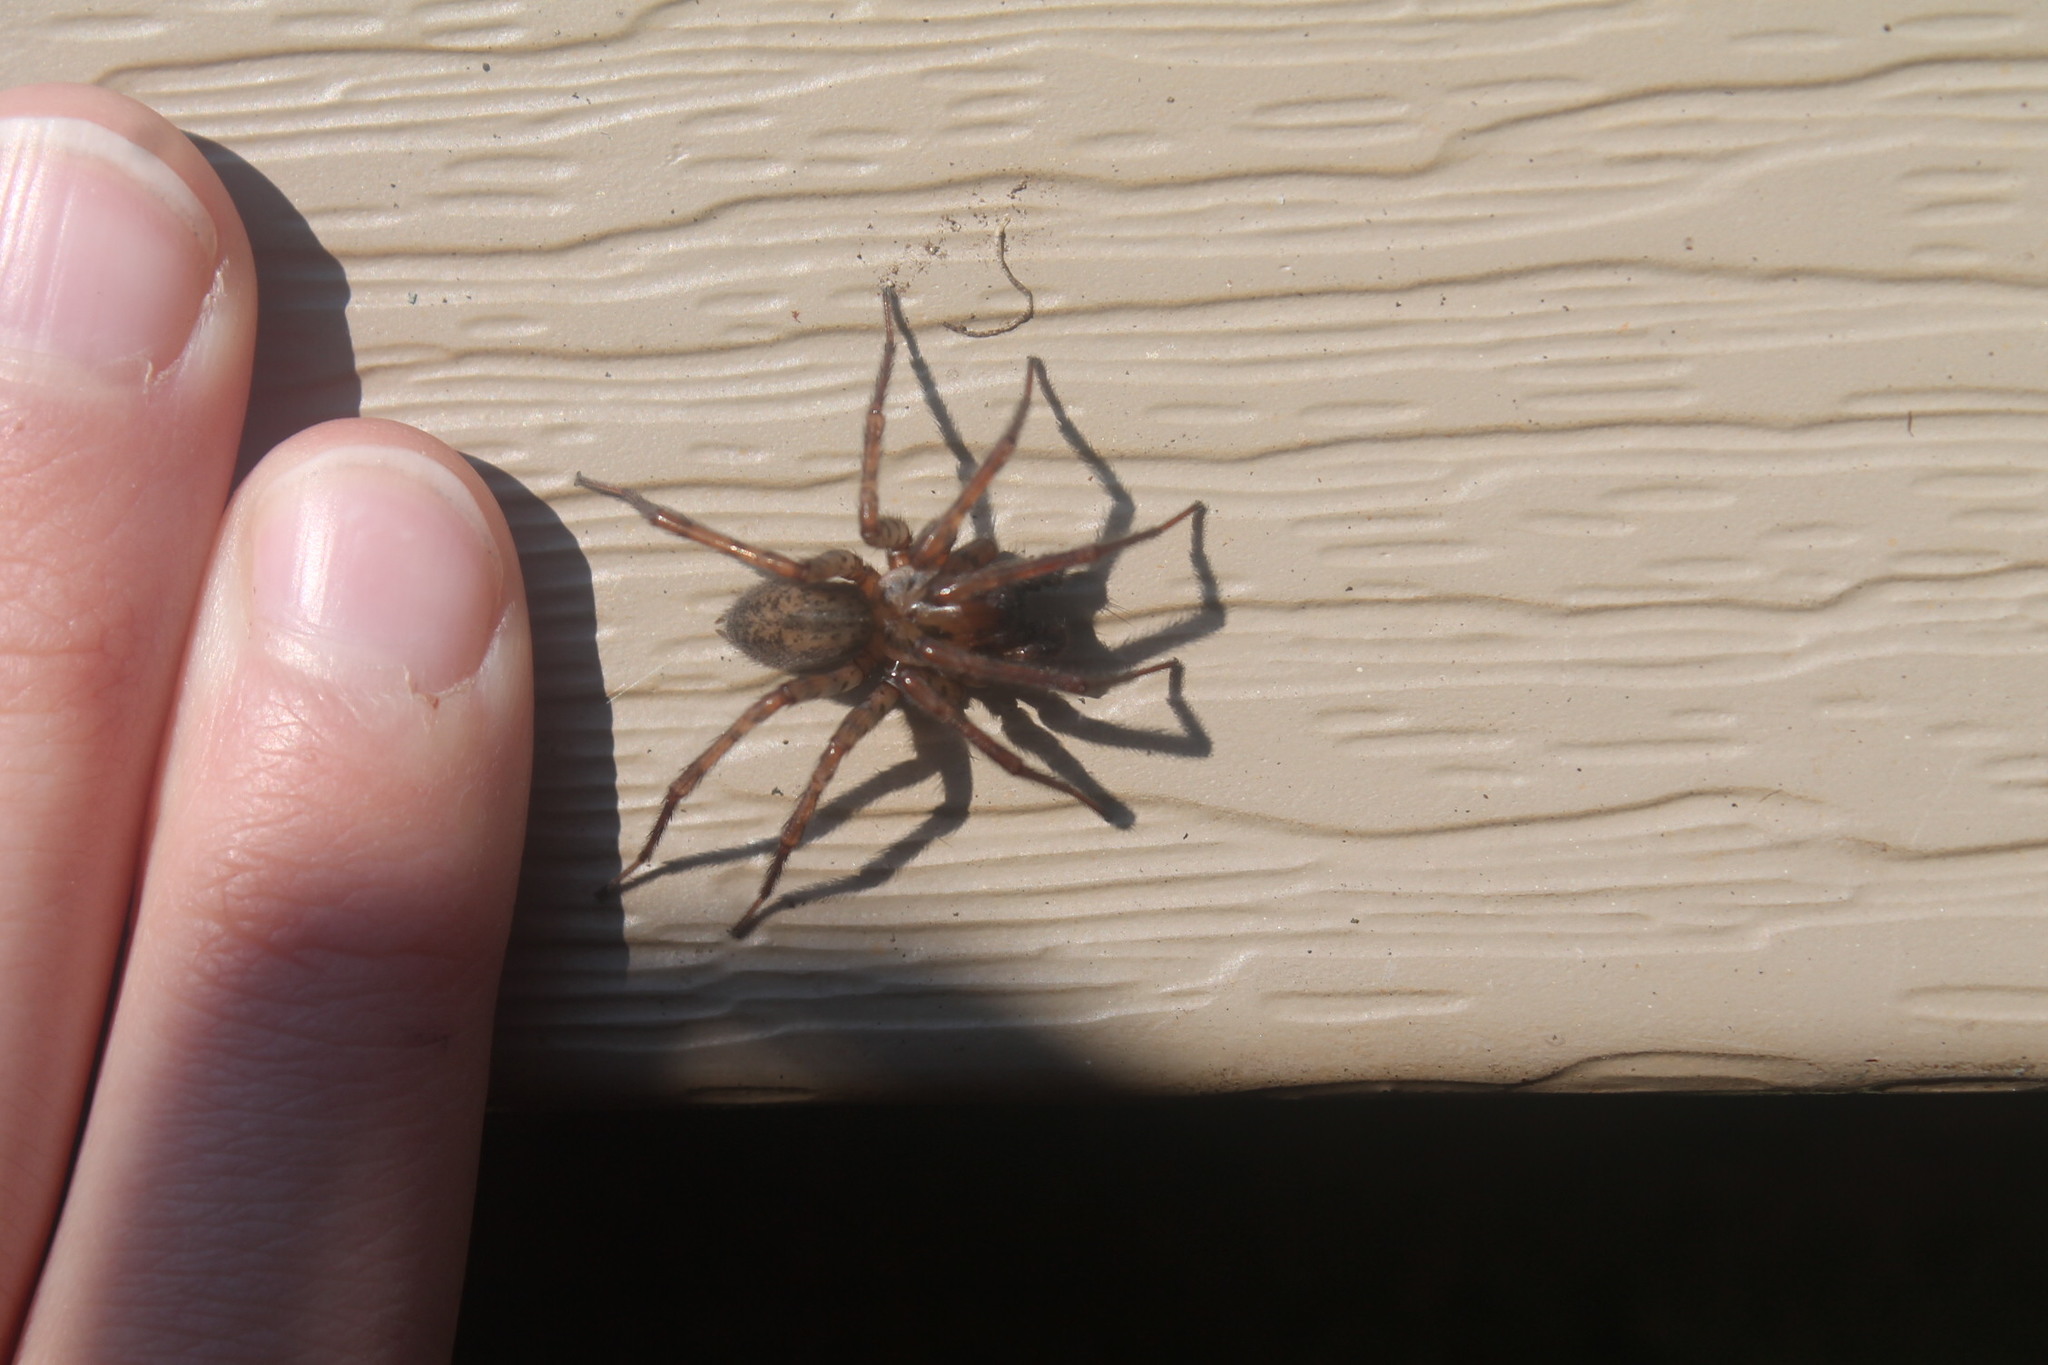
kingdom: Animalia
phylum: Arthropoda
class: Arachnida
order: Araneae
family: Agelenidae
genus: Coras
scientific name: Coras
